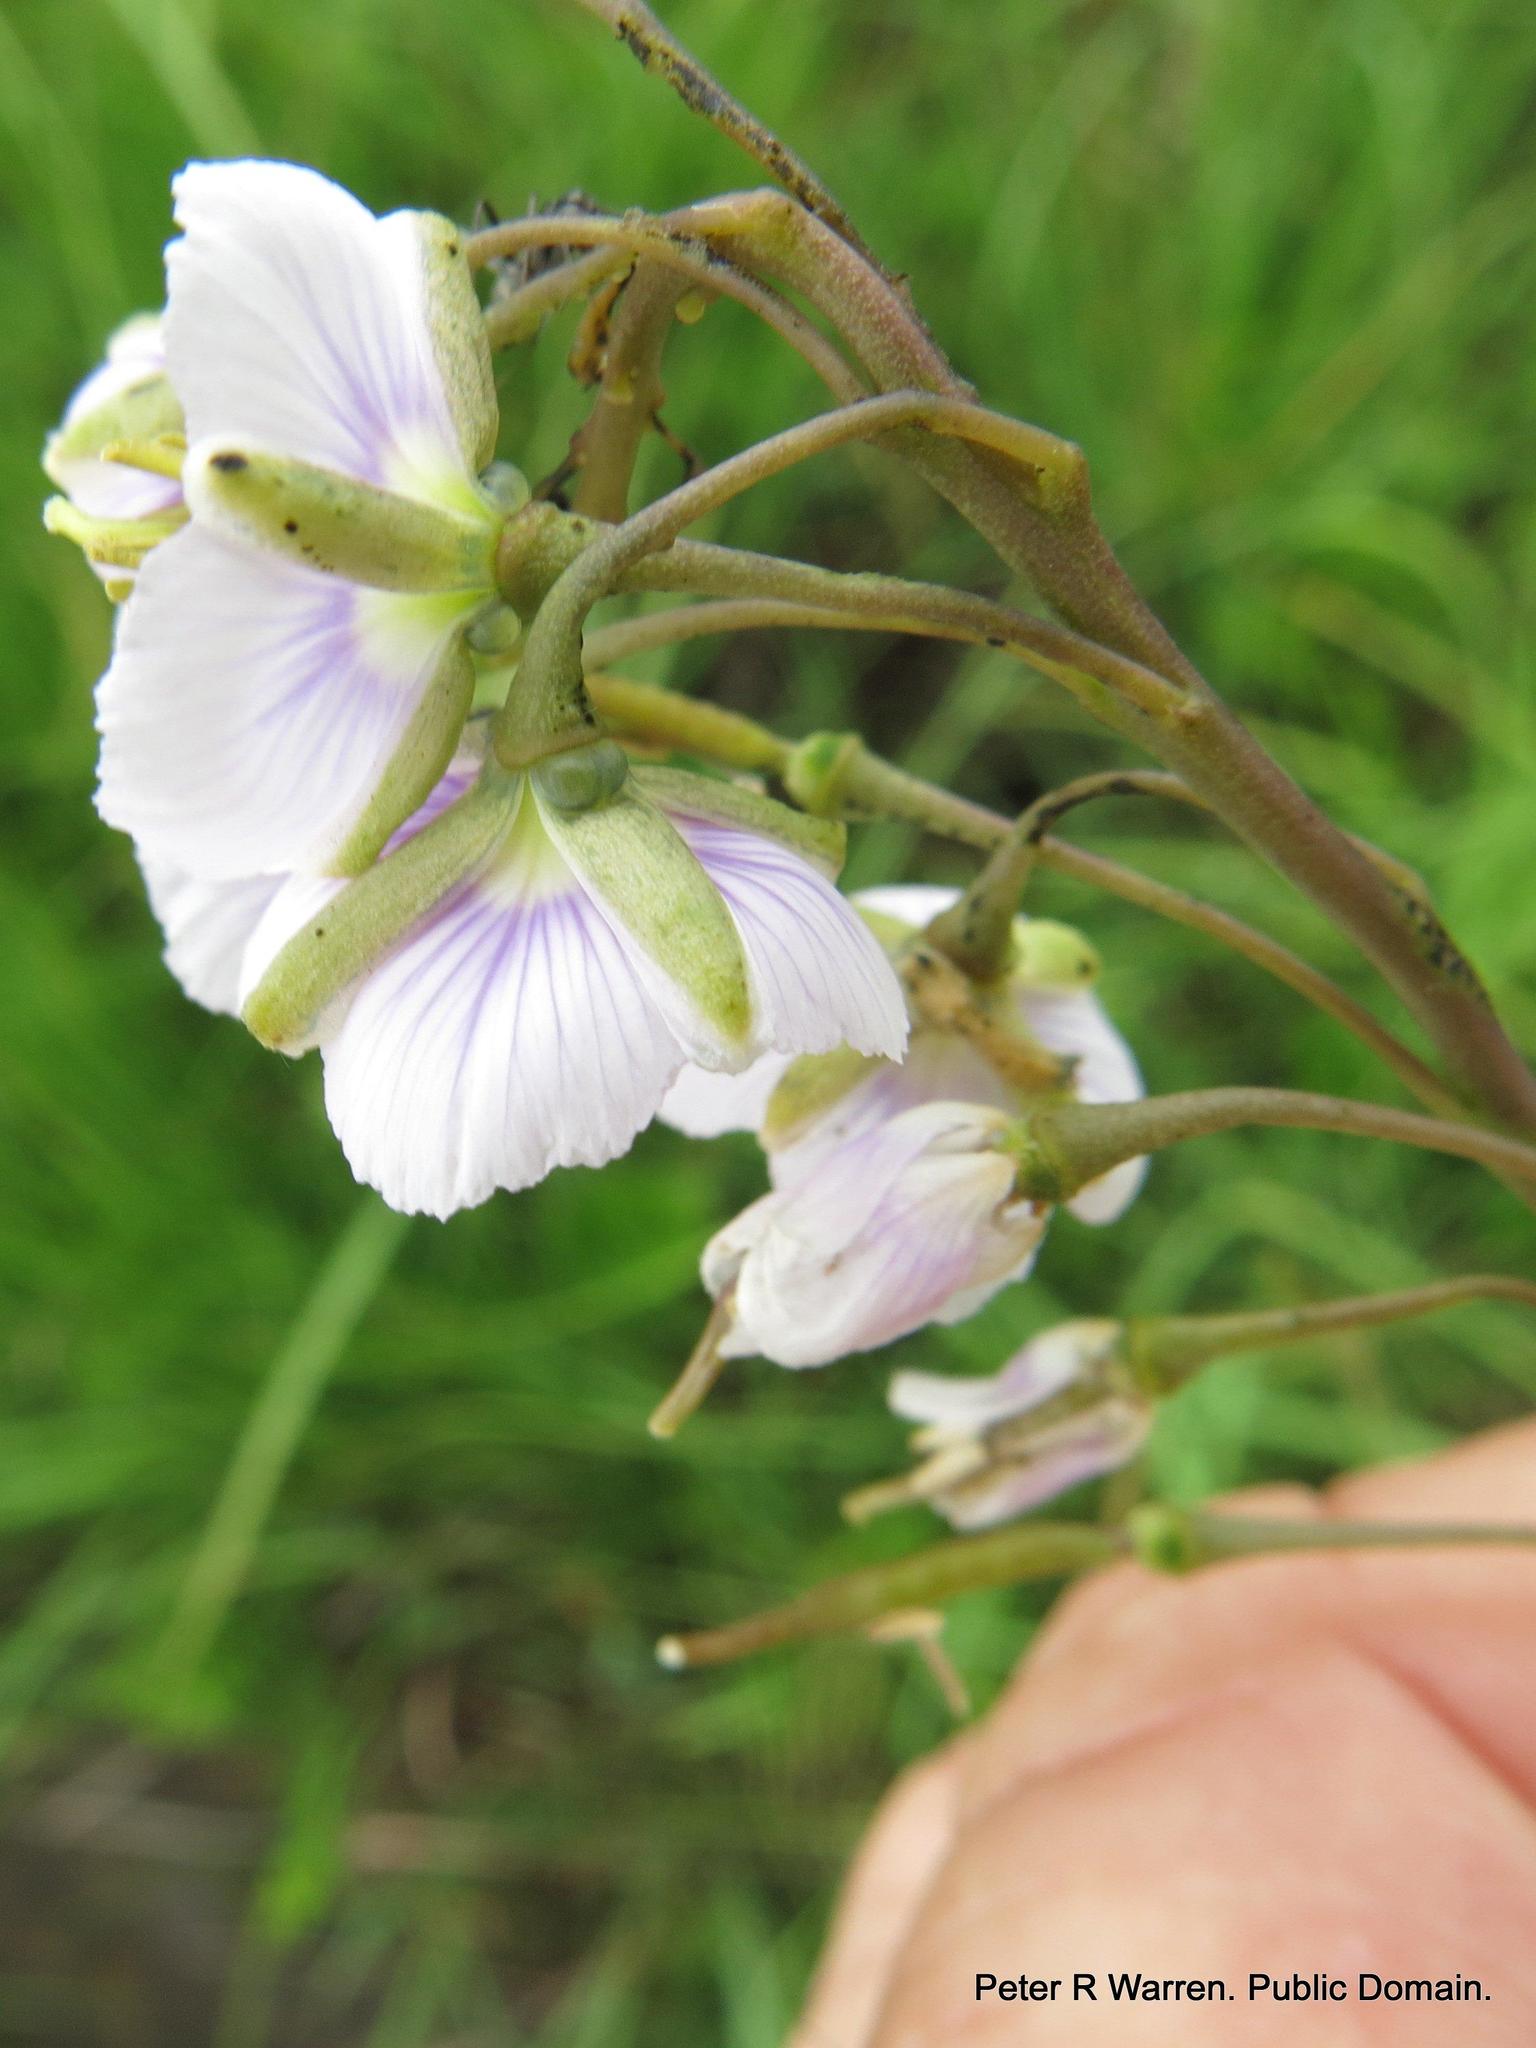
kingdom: Plantae
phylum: Tracheophyta
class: Magnoliopsida
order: Brassicales
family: Brassicaceae
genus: Heliophila
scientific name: Heliophila rigidiuscula
